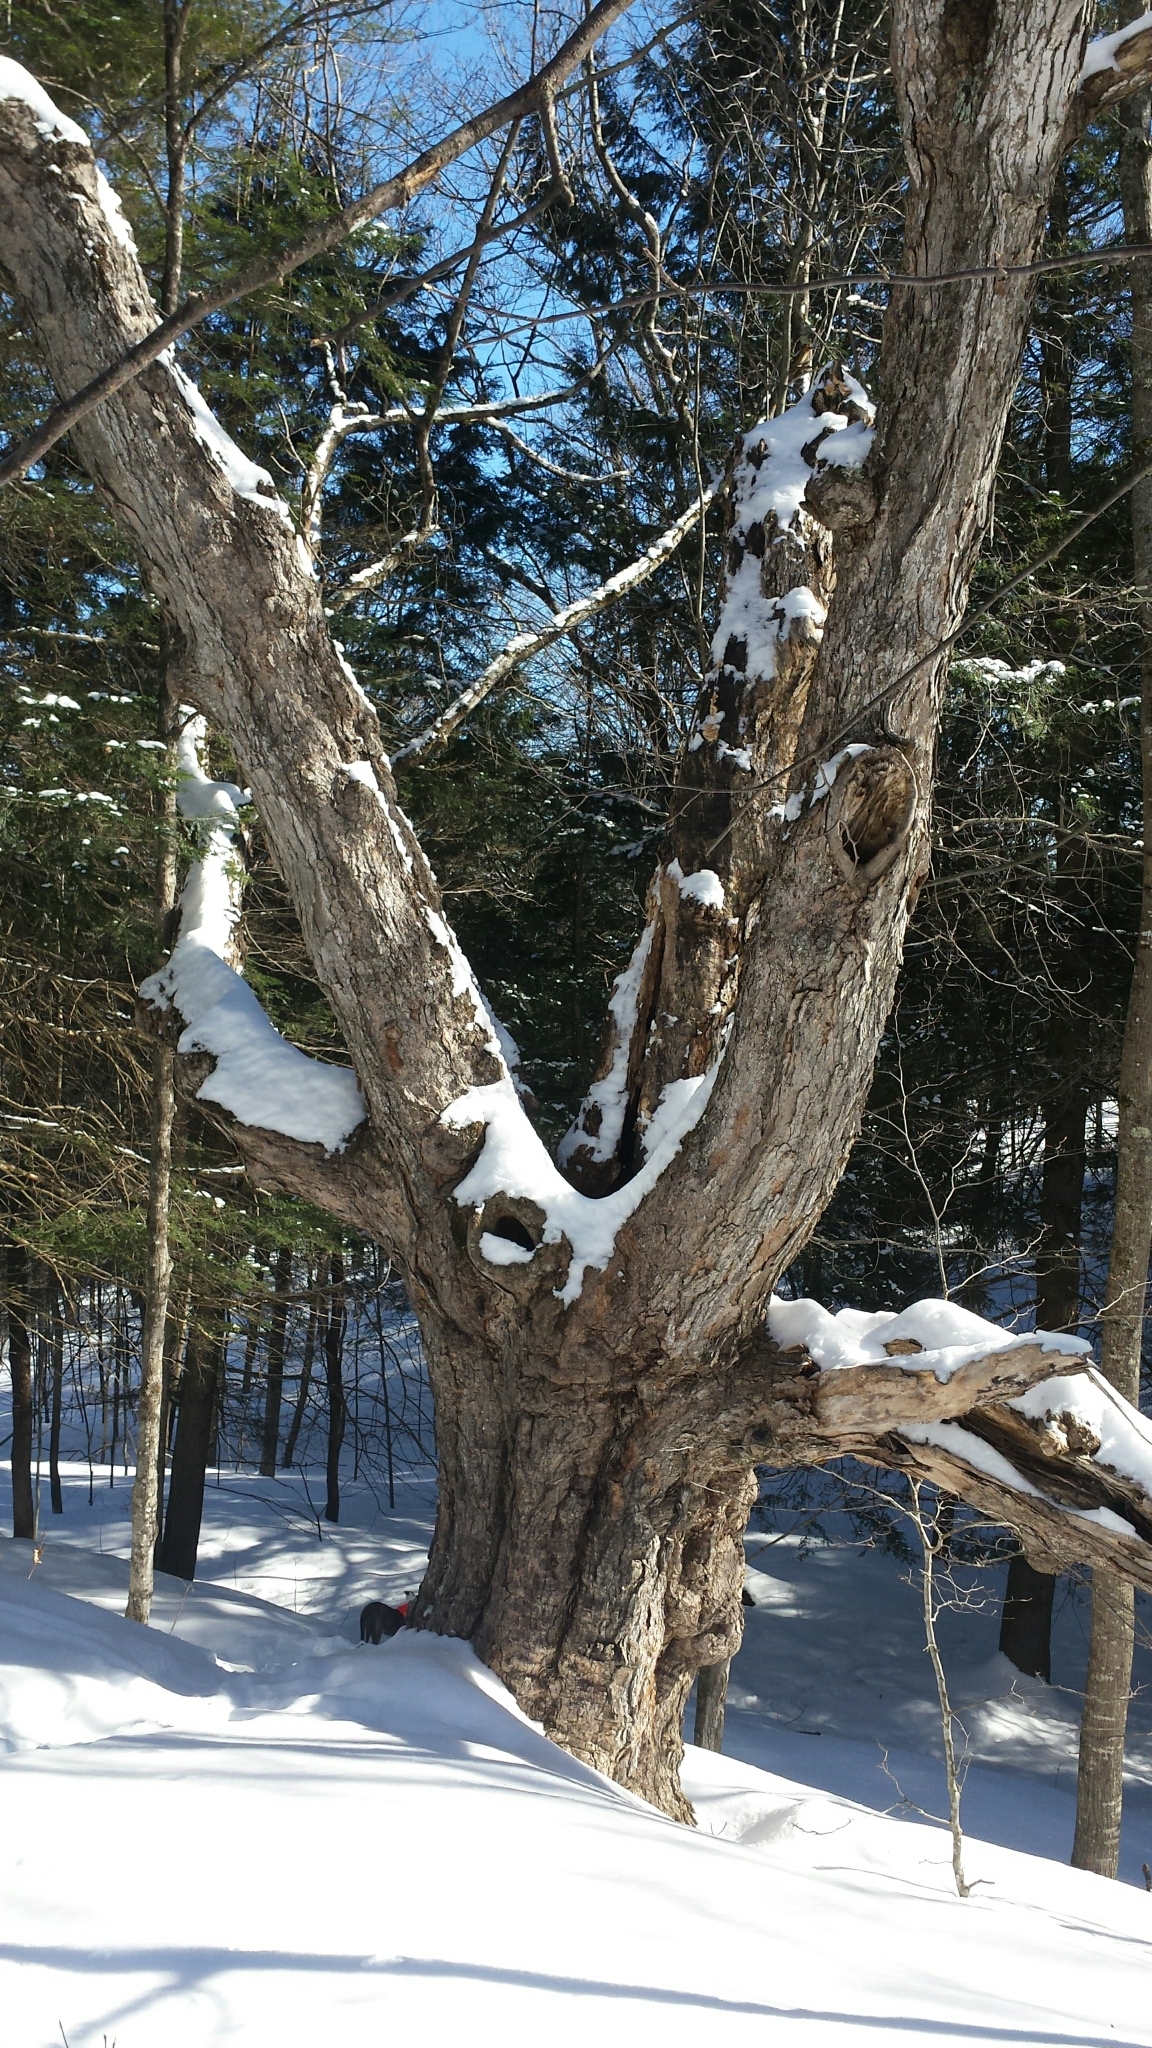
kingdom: Plantae
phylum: Tracheophyta
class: Magnoliopsida
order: Sapindales
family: Sapindaceae
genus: Acer
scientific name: Acer saccharum
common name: Sugar maple
